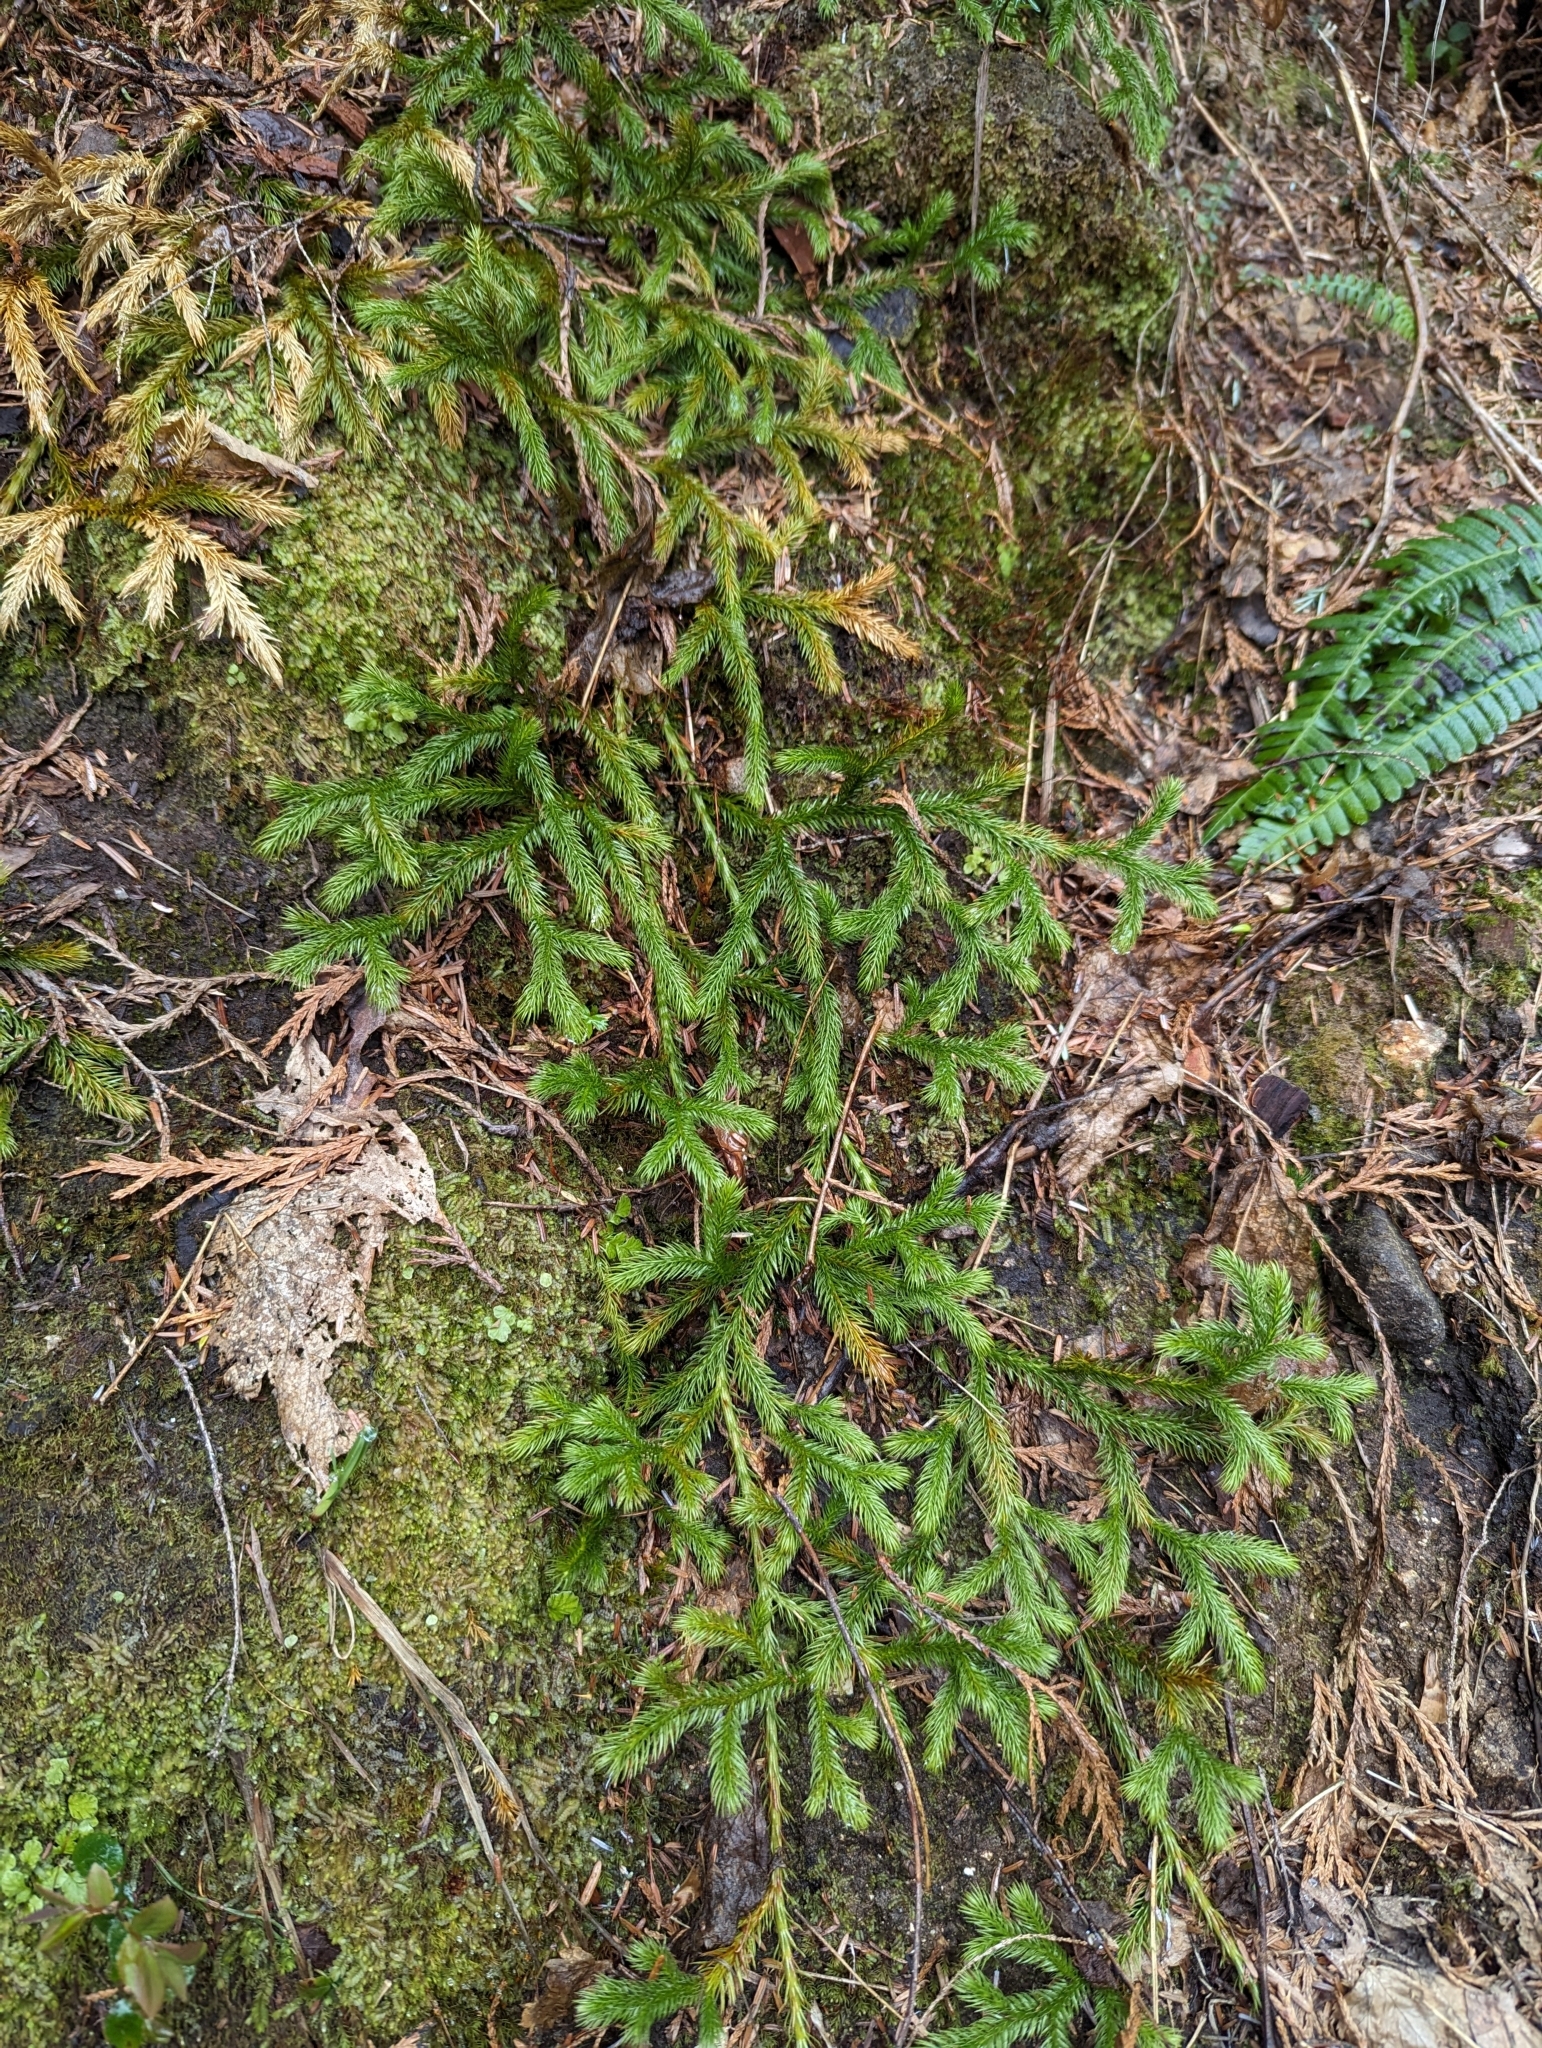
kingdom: Plantae
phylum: Tracheophyta
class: Lycopodiopsida
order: Lycopodiales
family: Lycopodiaceae
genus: Lycopodium
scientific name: Lycopodium clavatum
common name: Stag's-horn clubmoss
